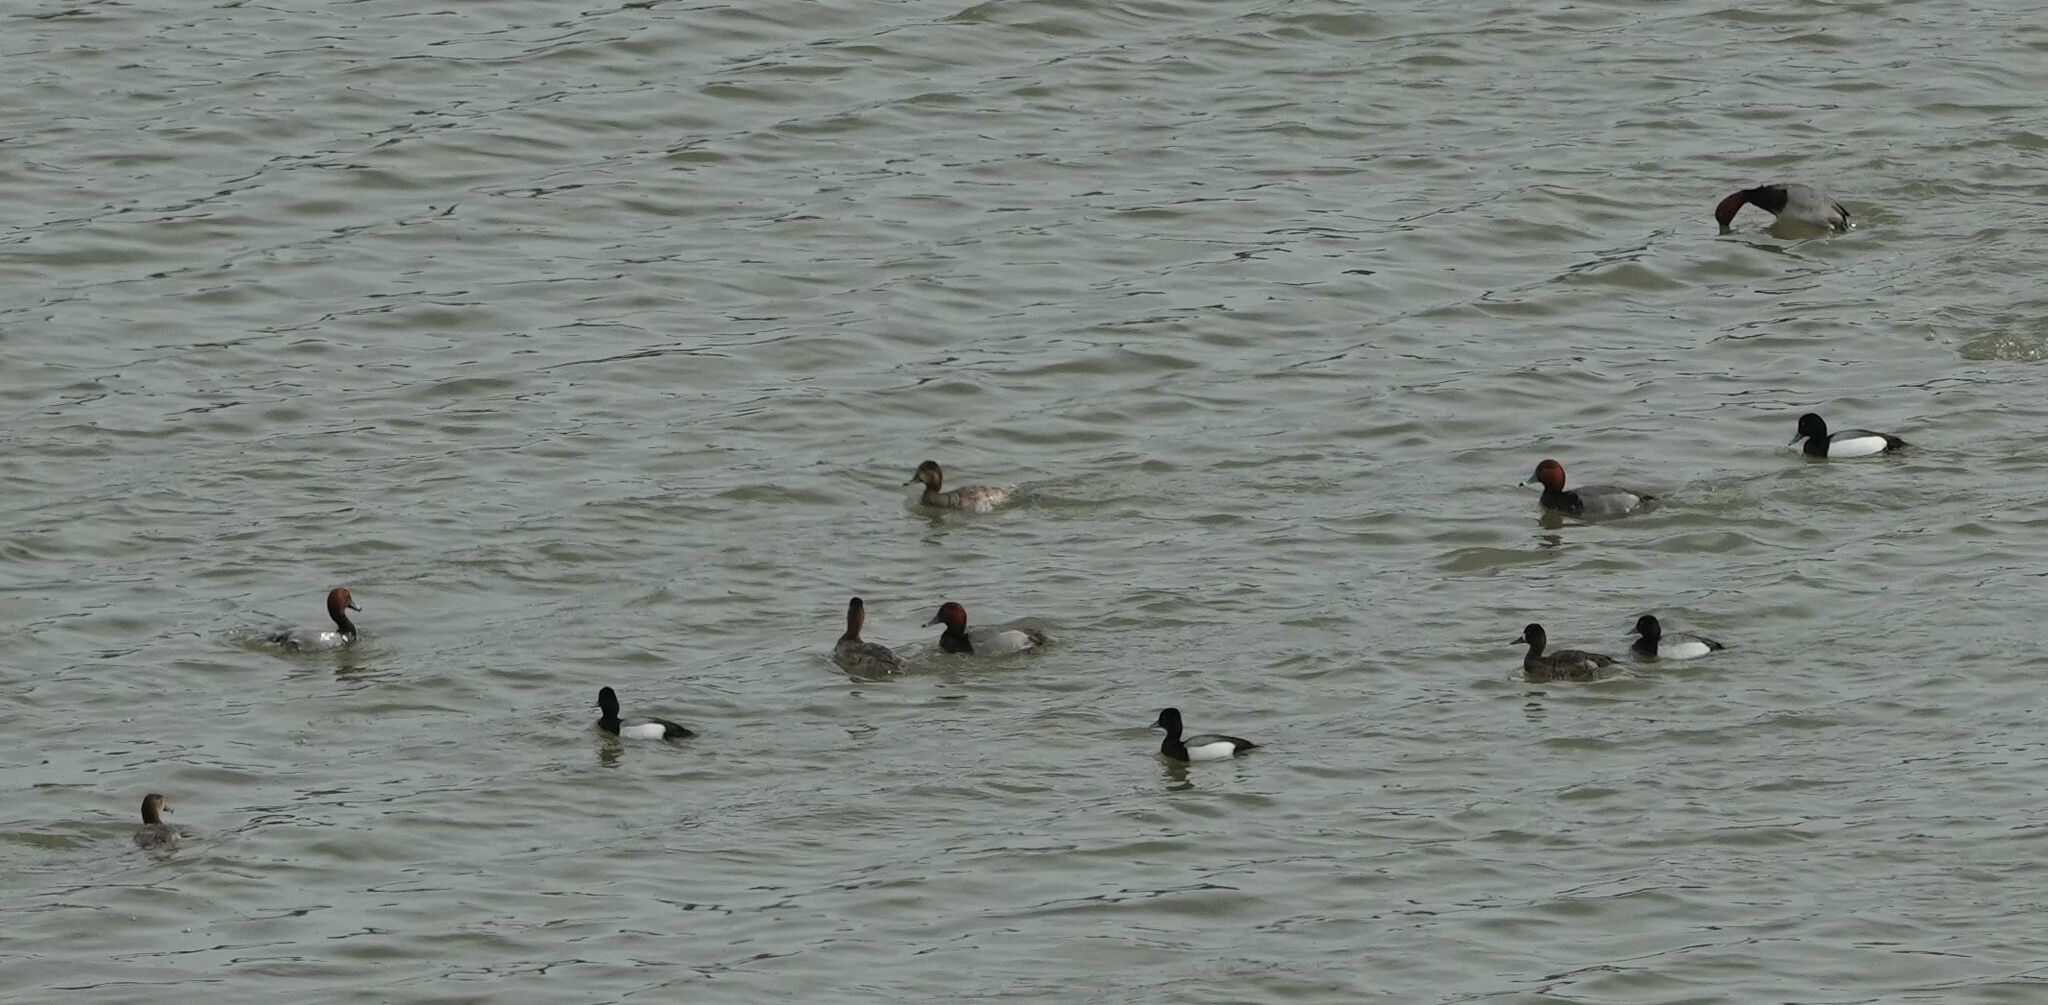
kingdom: Animalia
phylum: Chordata
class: Aves
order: Anseriformes
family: Anatidae
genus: Aythya
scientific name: Aythya americana
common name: Redhead
